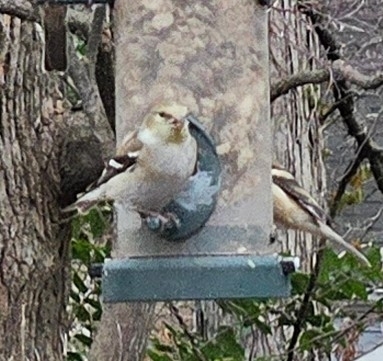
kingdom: Animalia
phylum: Chordata
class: Aves
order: Passeriformes
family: Fringillidae
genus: Spinus
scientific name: Spinus tristis
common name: American goldfinch
